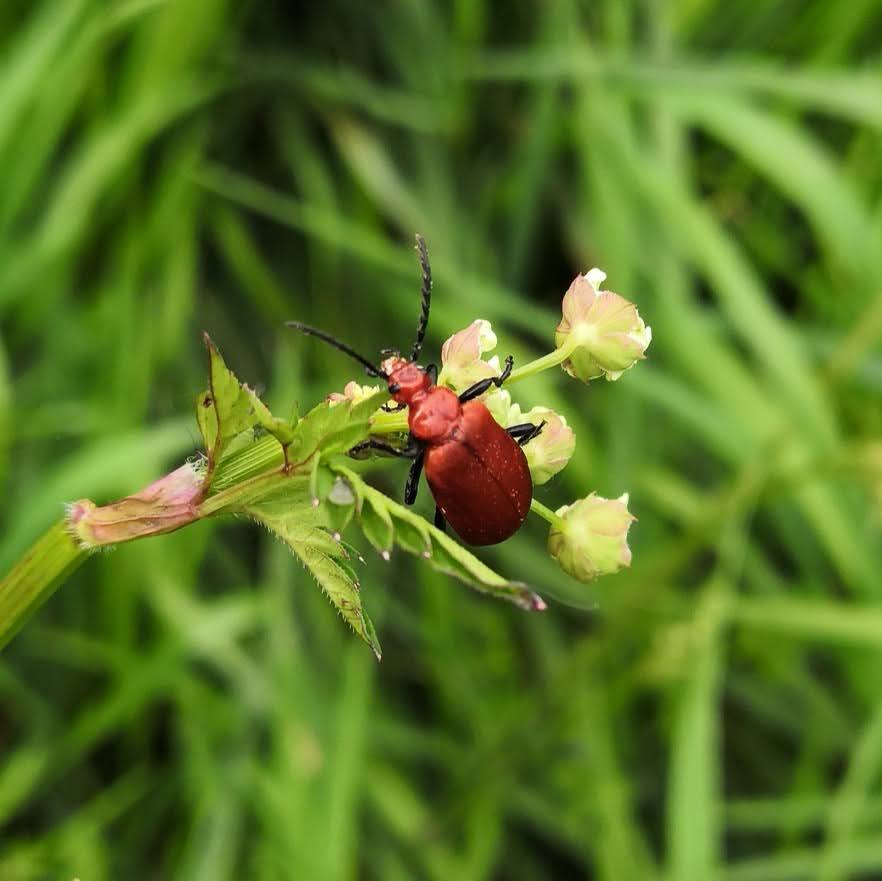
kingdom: Animalia
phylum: Arthropoda
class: Insecta
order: Coleoptera
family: Pyrochroidae
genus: Pyrochroa
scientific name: Pyrochroa serraticornis
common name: Red-headed cardinal beetle
